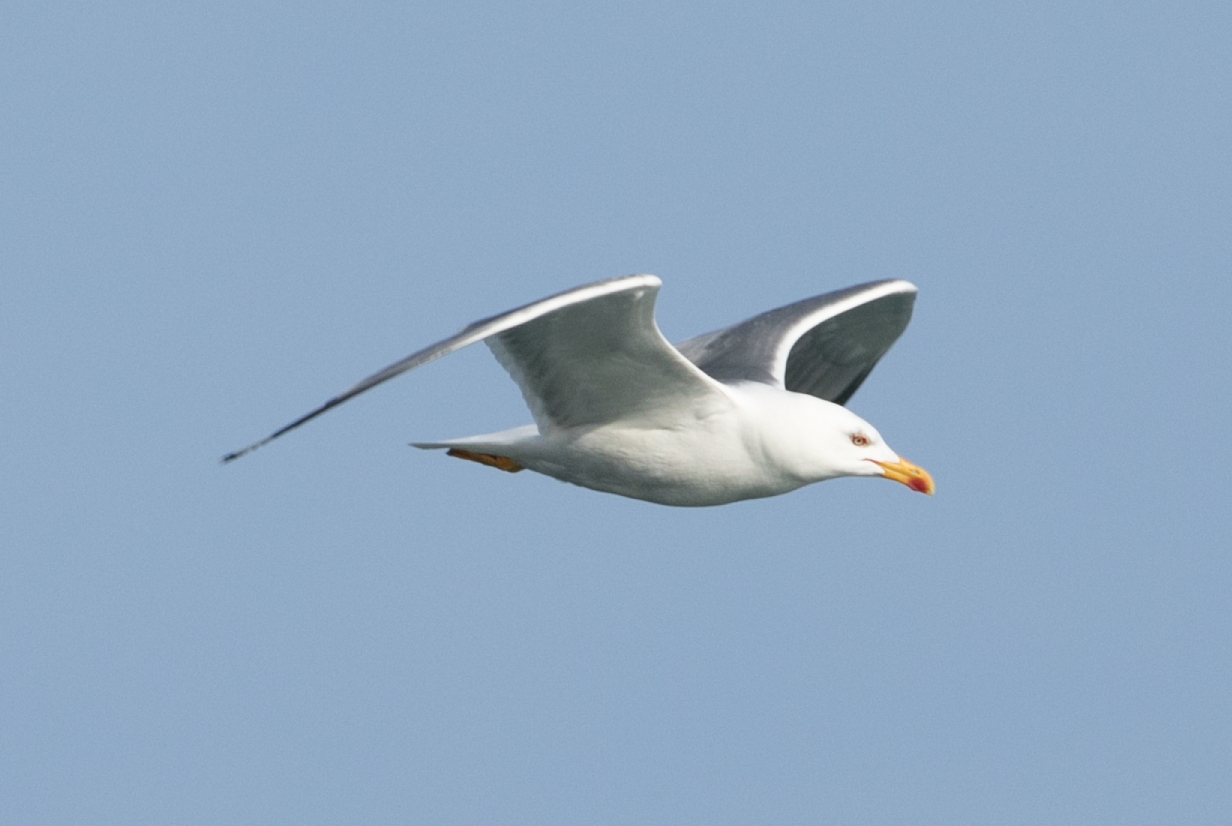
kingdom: Animalia
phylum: Chordata
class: Aves
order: Charadriiformes
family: Laridae
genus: Larus
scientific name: Larus michahellis
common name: Yellow-legged gull
